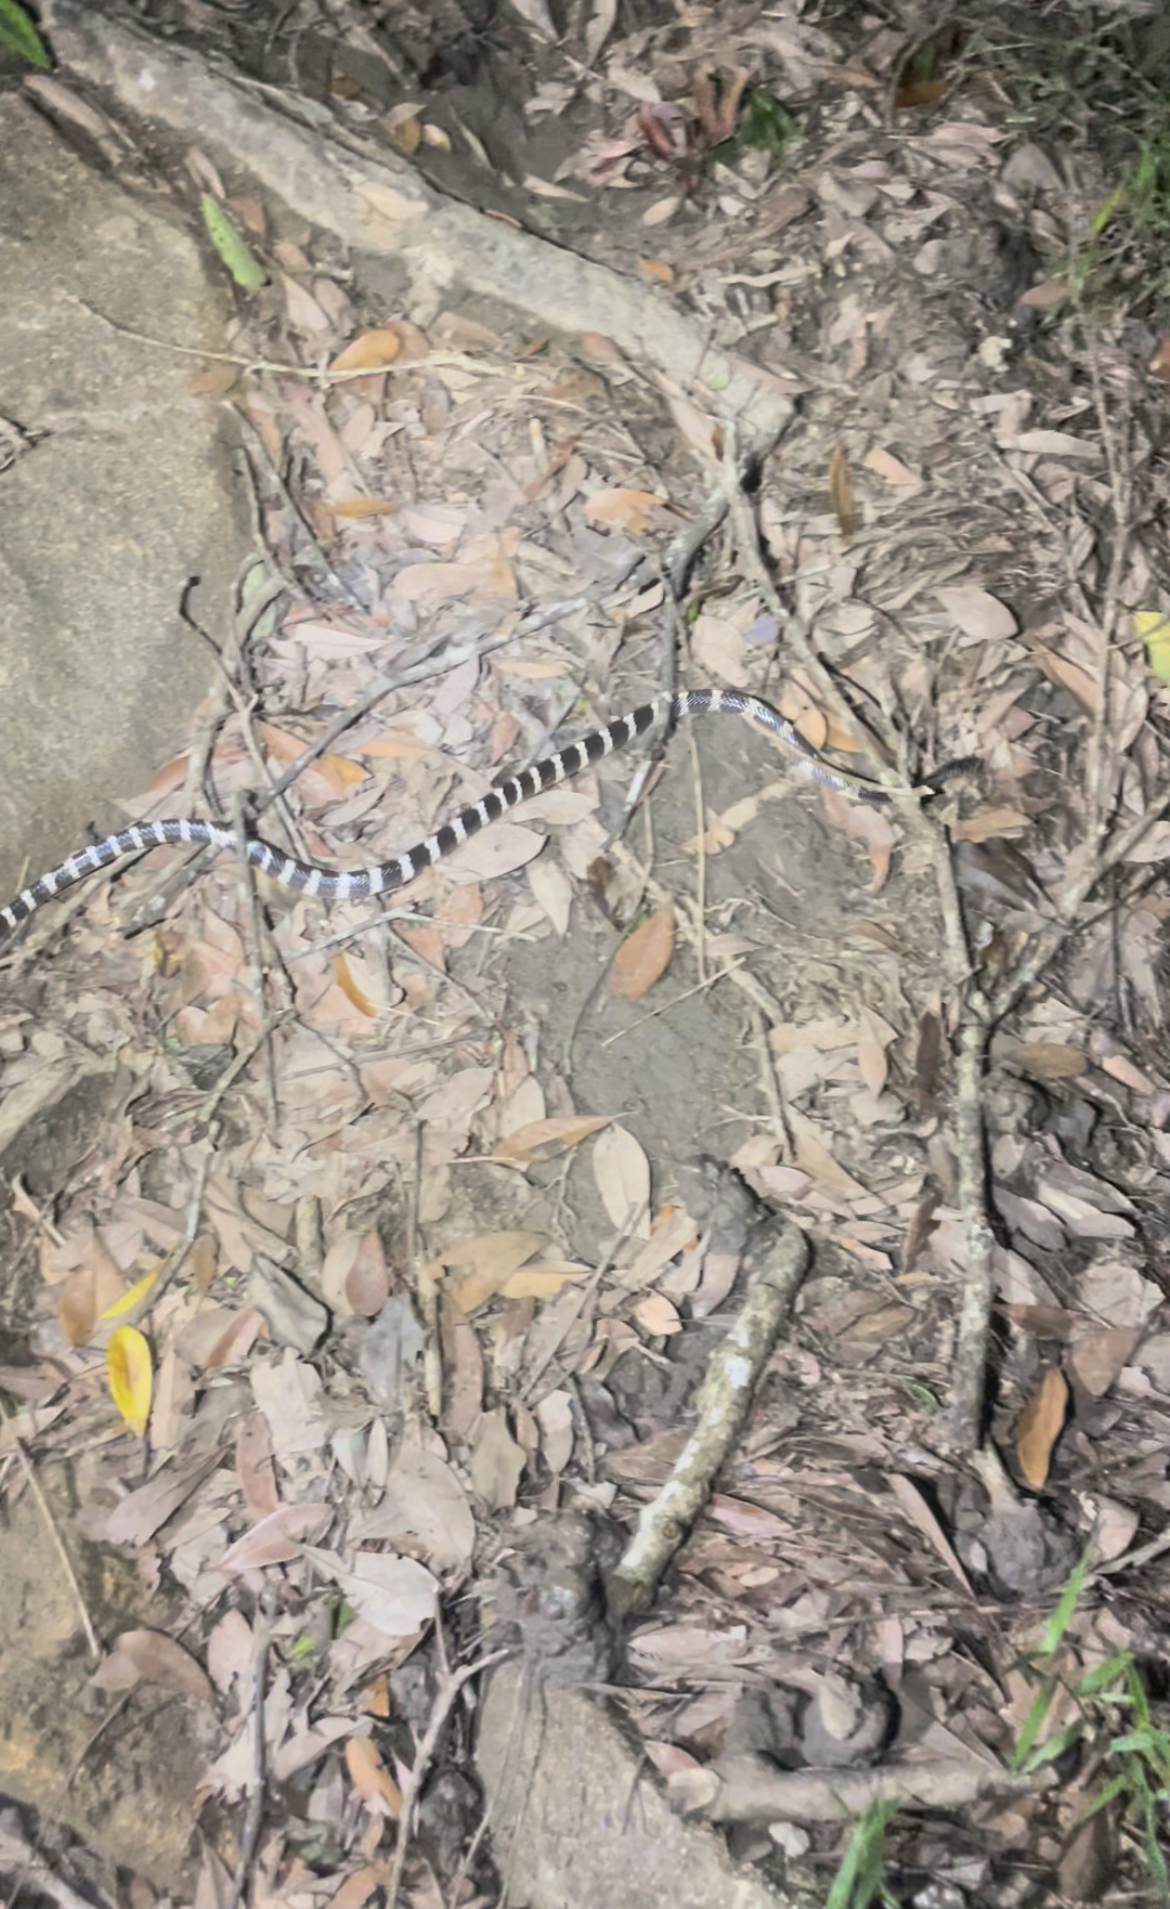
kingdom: Animalia
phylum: Chordata
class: Squamata
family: Elapidae
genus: Bungarus
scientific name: Bungarus multicinctus
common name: Many-banded krait
